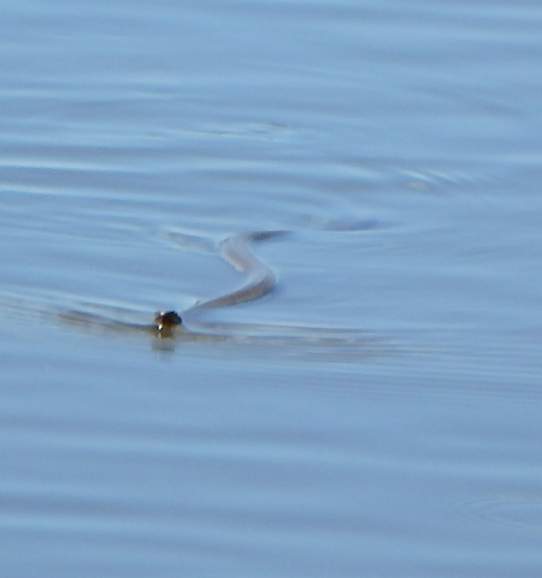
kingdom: Animalia
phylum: Chordata
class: Squamata
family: Colubridae
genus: Nerodia
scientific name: Nerodia sipedon
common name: Northern water snake
